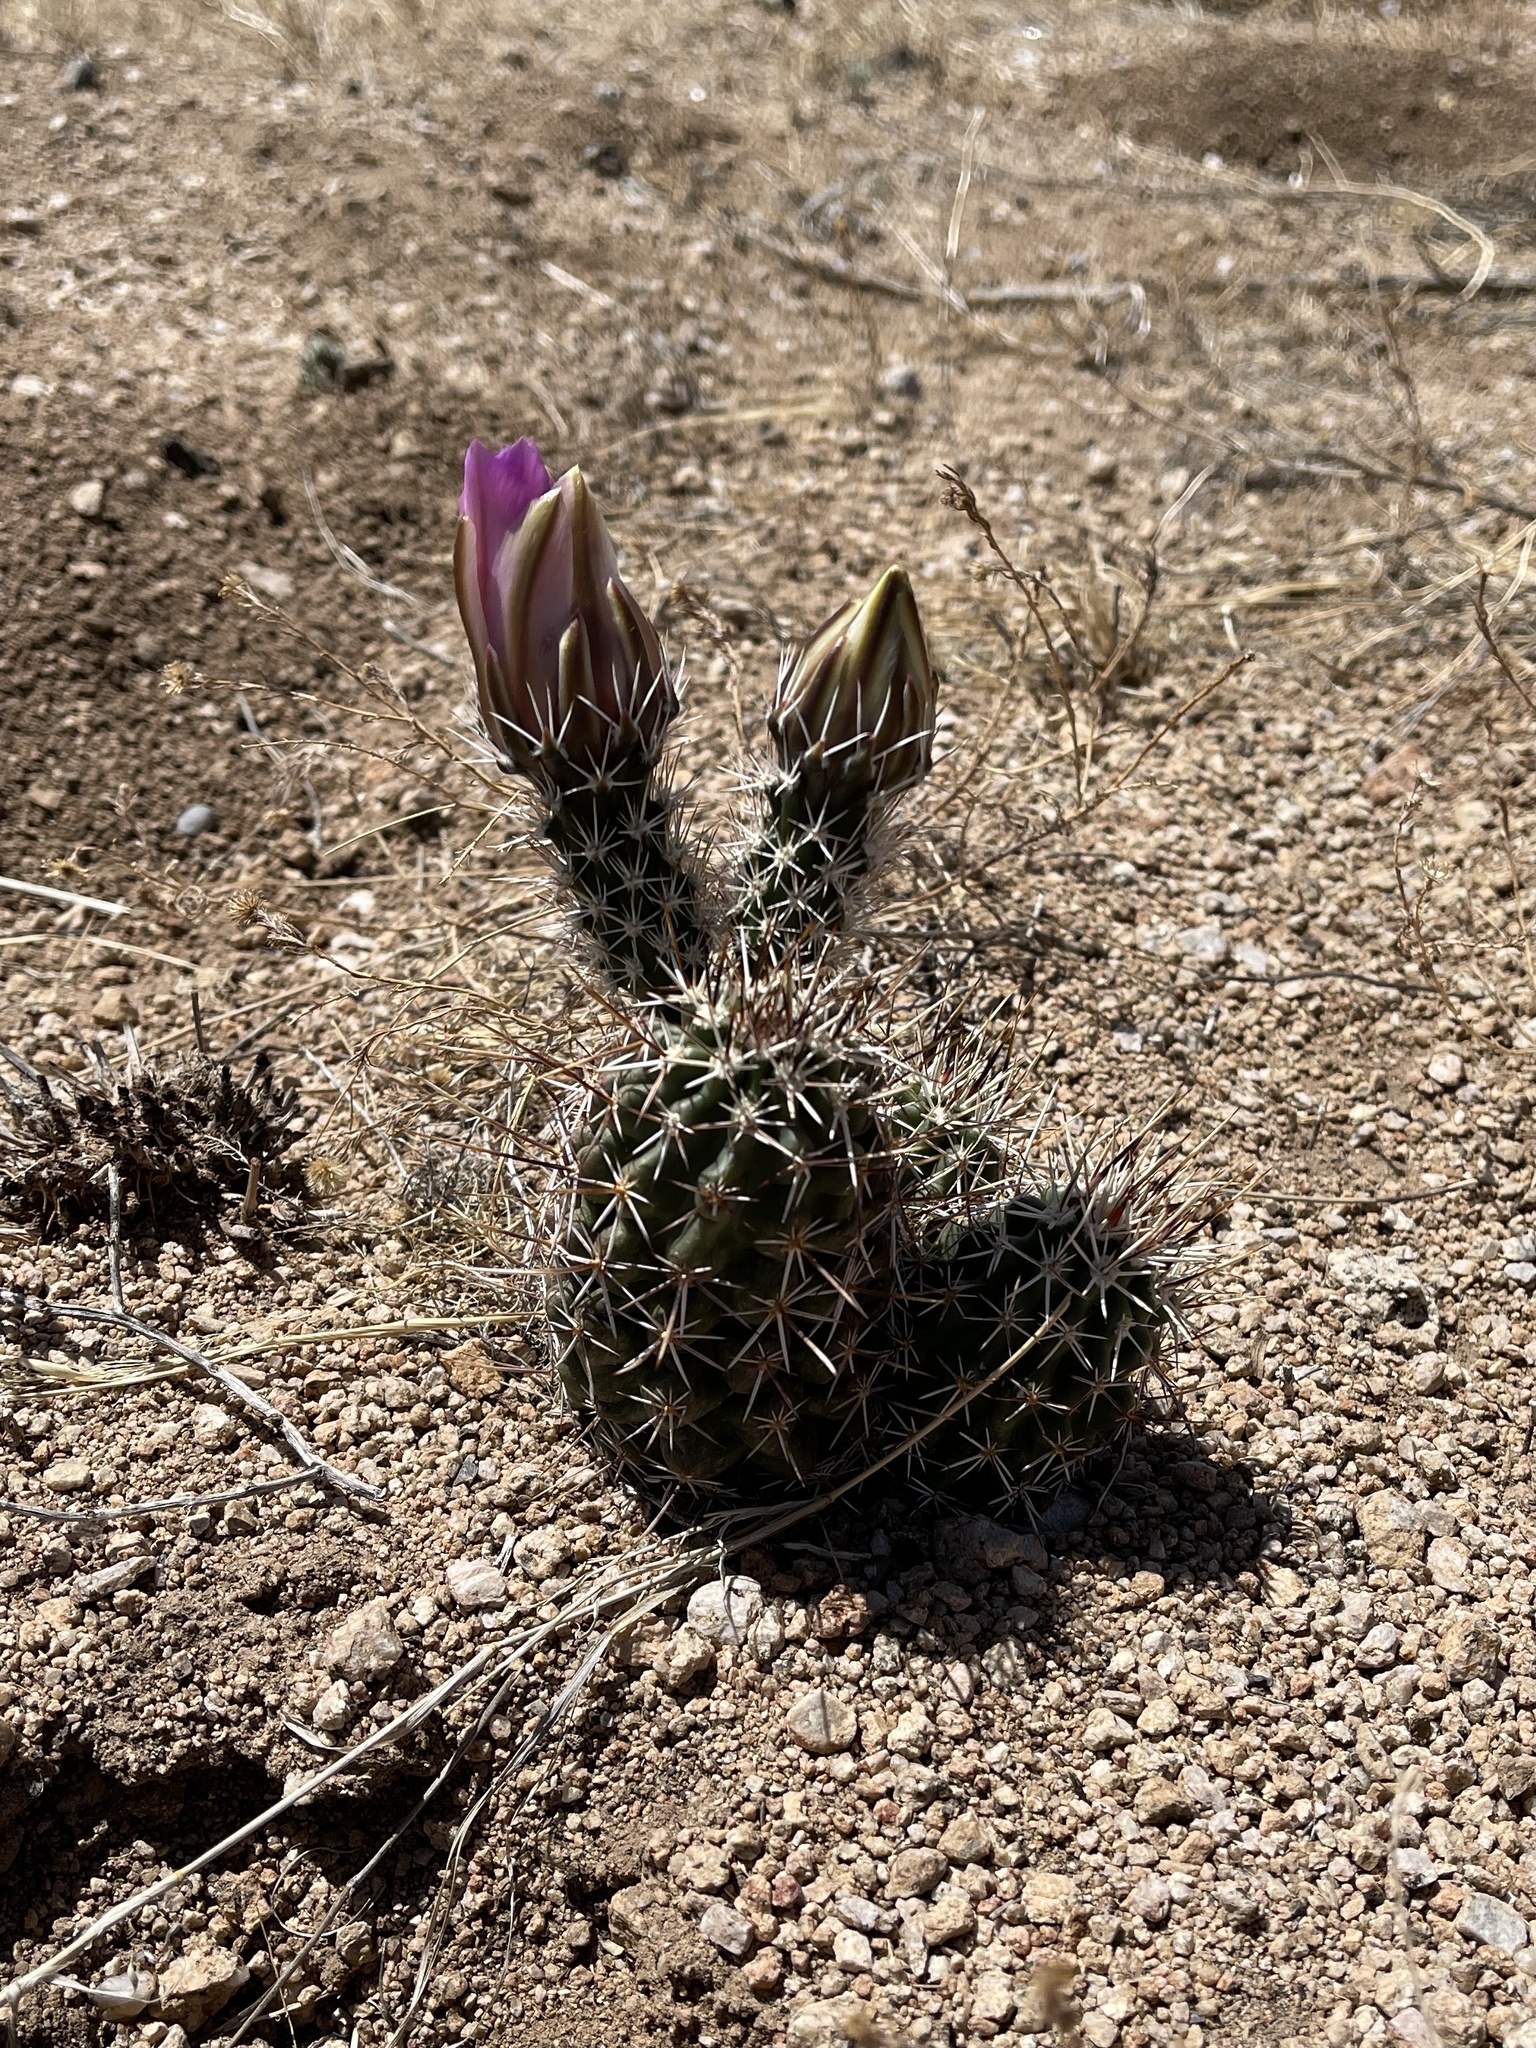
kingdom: Plantae
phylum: Tracheophyta
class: Magnoliopsida
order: Caryophyllales
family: Cactaceae
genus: Echinocereus
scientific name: Echinocereus fendleri
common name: Fendler's hedgehog cactus
